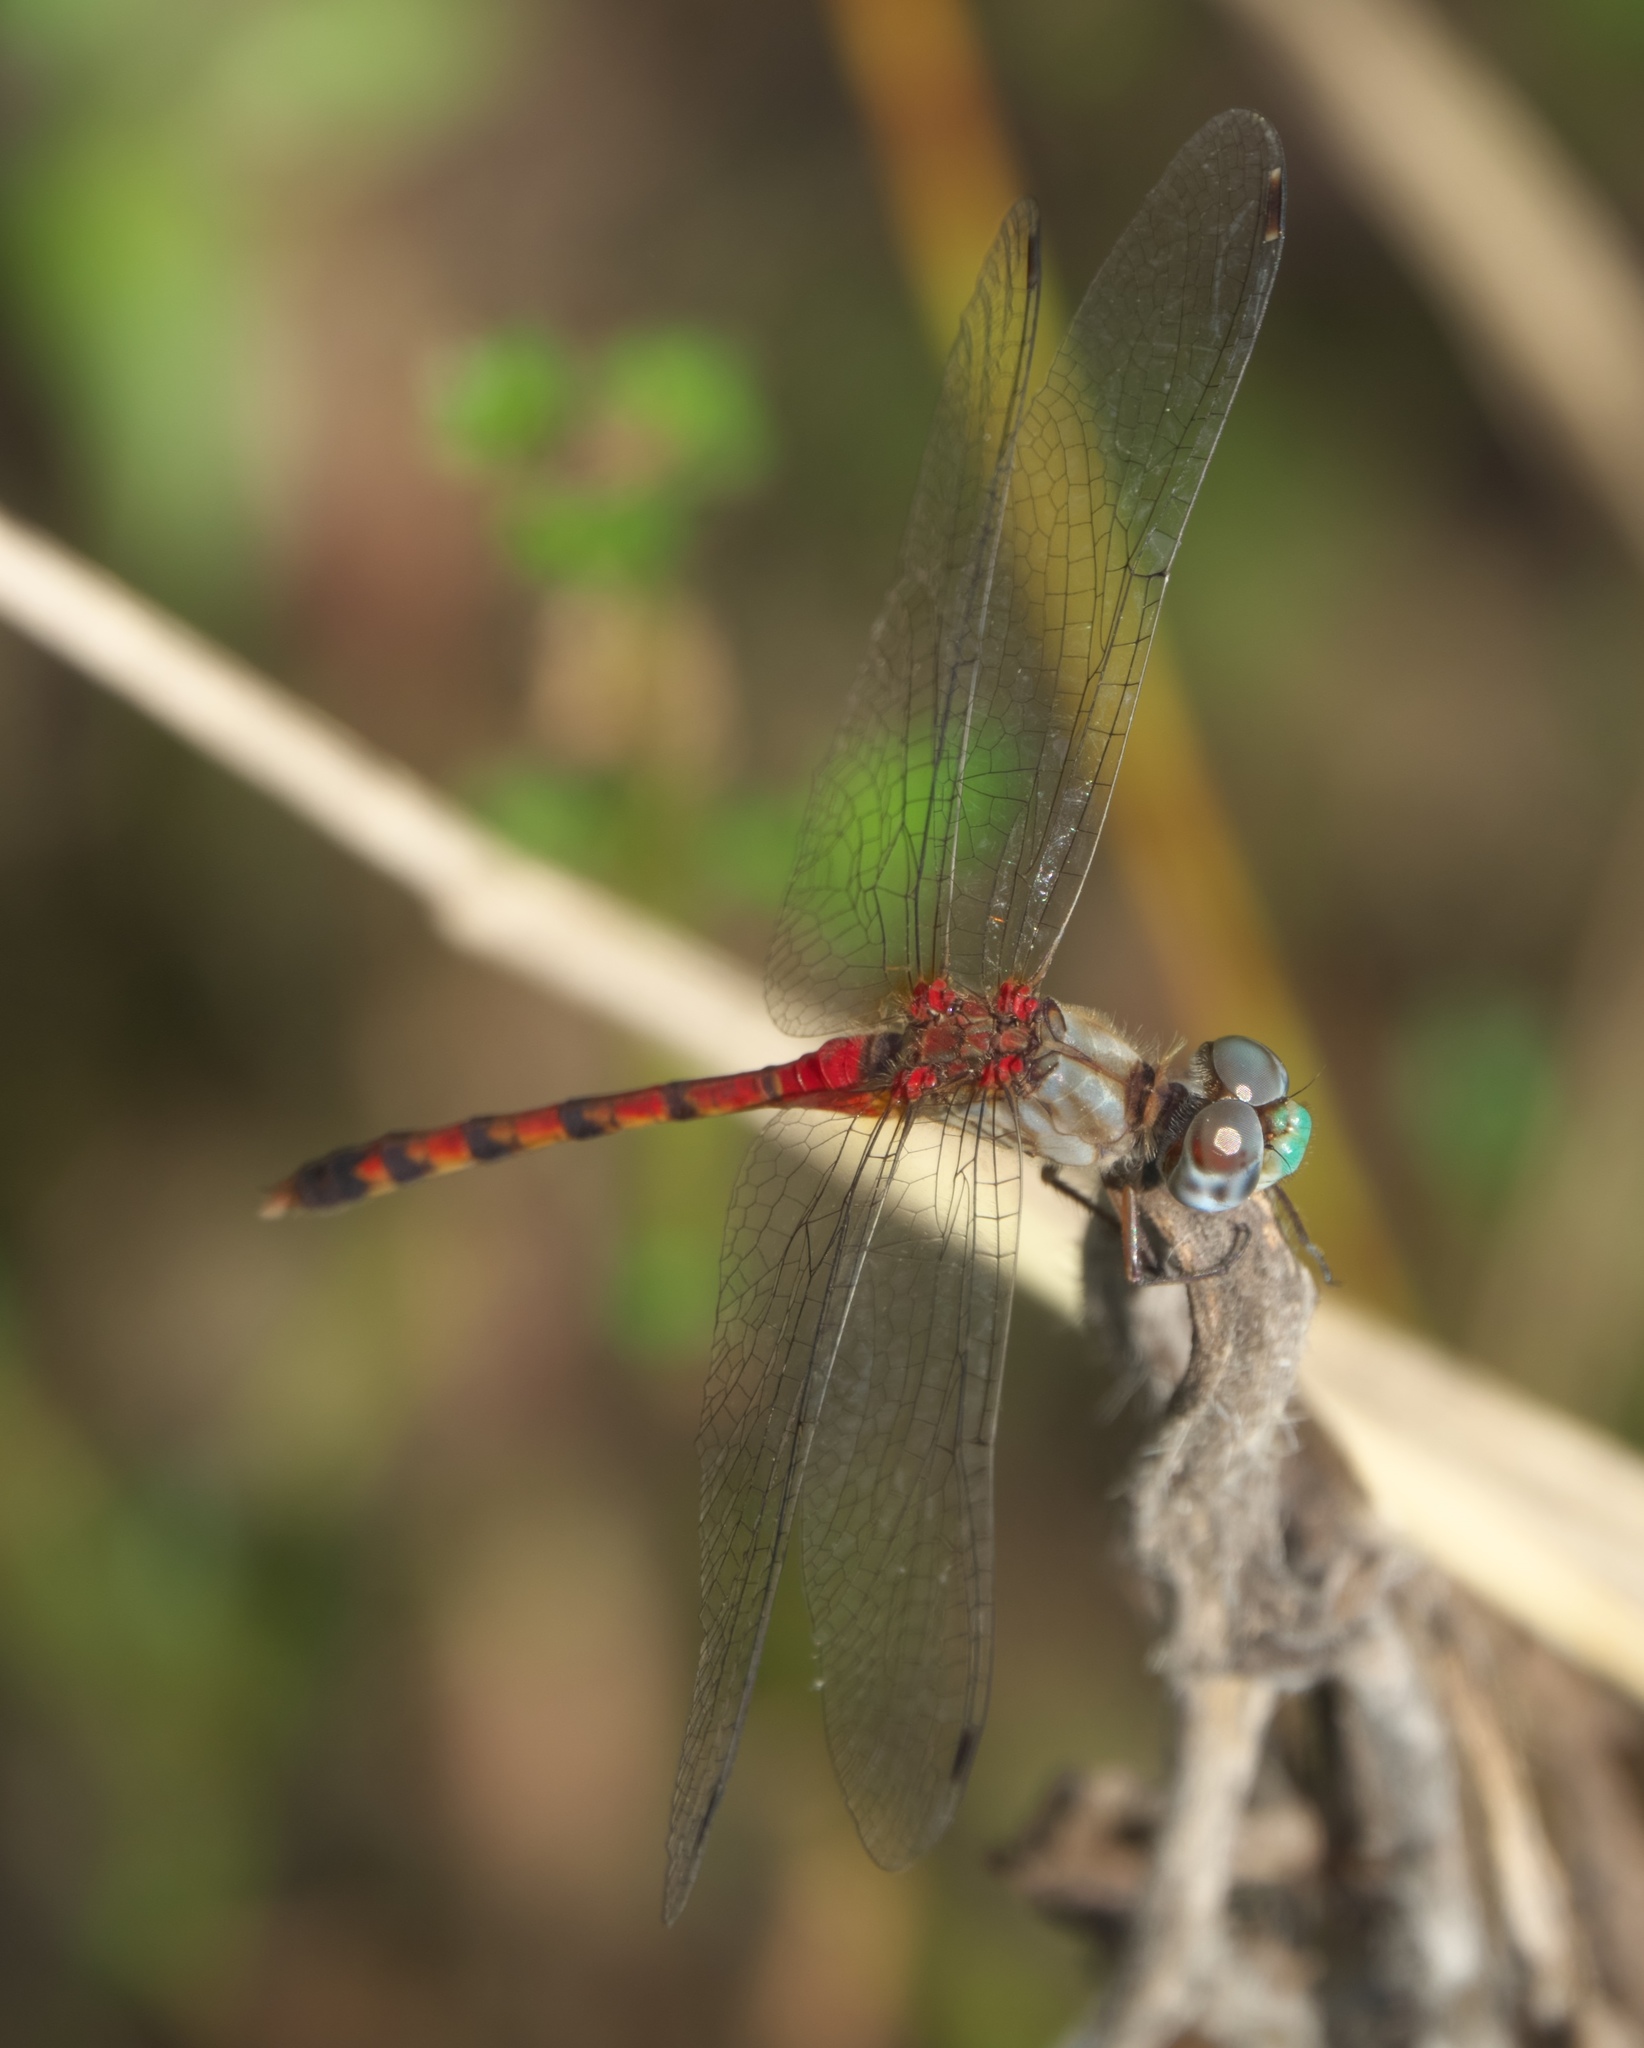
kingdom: Animalia
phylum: Arthropoda
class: Insecta
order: Odonata
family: Libellulidae
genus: Sympetrum
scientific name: Sympetrum ambiguum
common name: Blue-faced meadowhawk
